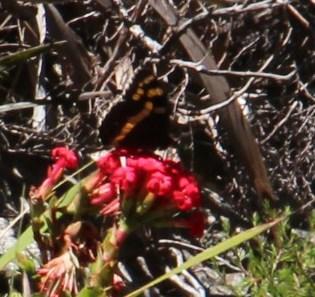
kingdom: Animalia
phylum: Arthropoda
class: Insecta
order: Lepidoptera
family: Nymphalidae
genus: Meneris
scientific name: Meneris Aeropetes tulbaghia
